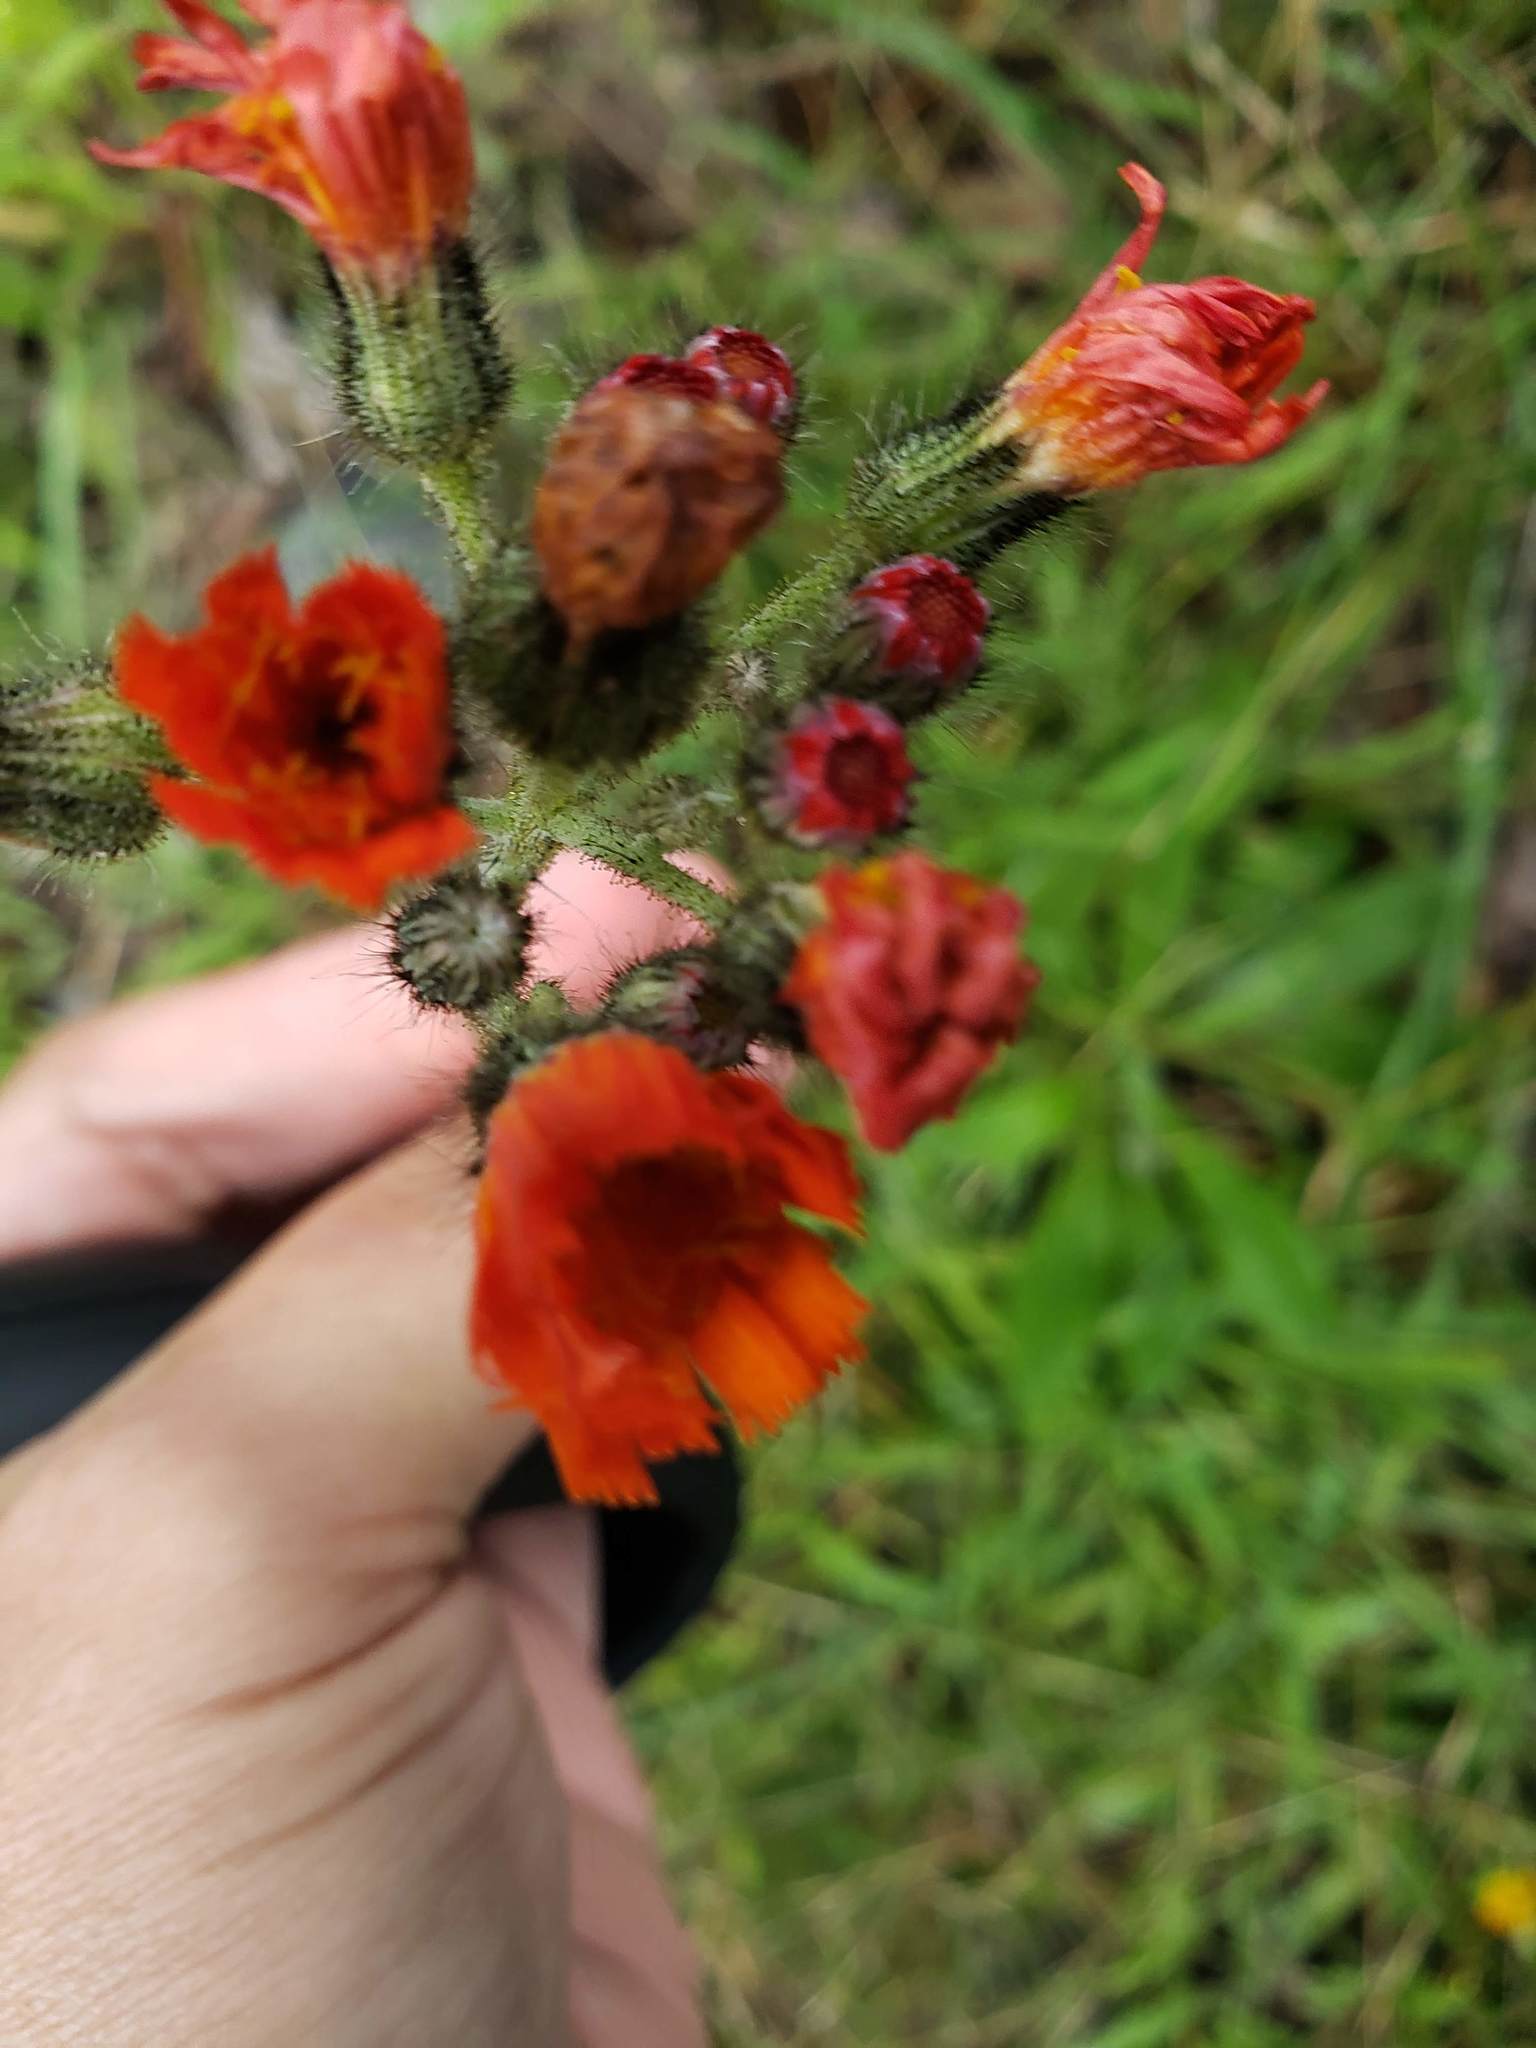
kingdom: Plantae
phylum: Tracheophyta
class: Magnoliopsida
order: Asterales
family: Asteraceae
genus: Pilosella
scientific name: Pilosella aurantiaca
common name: Fox-and-cubs
